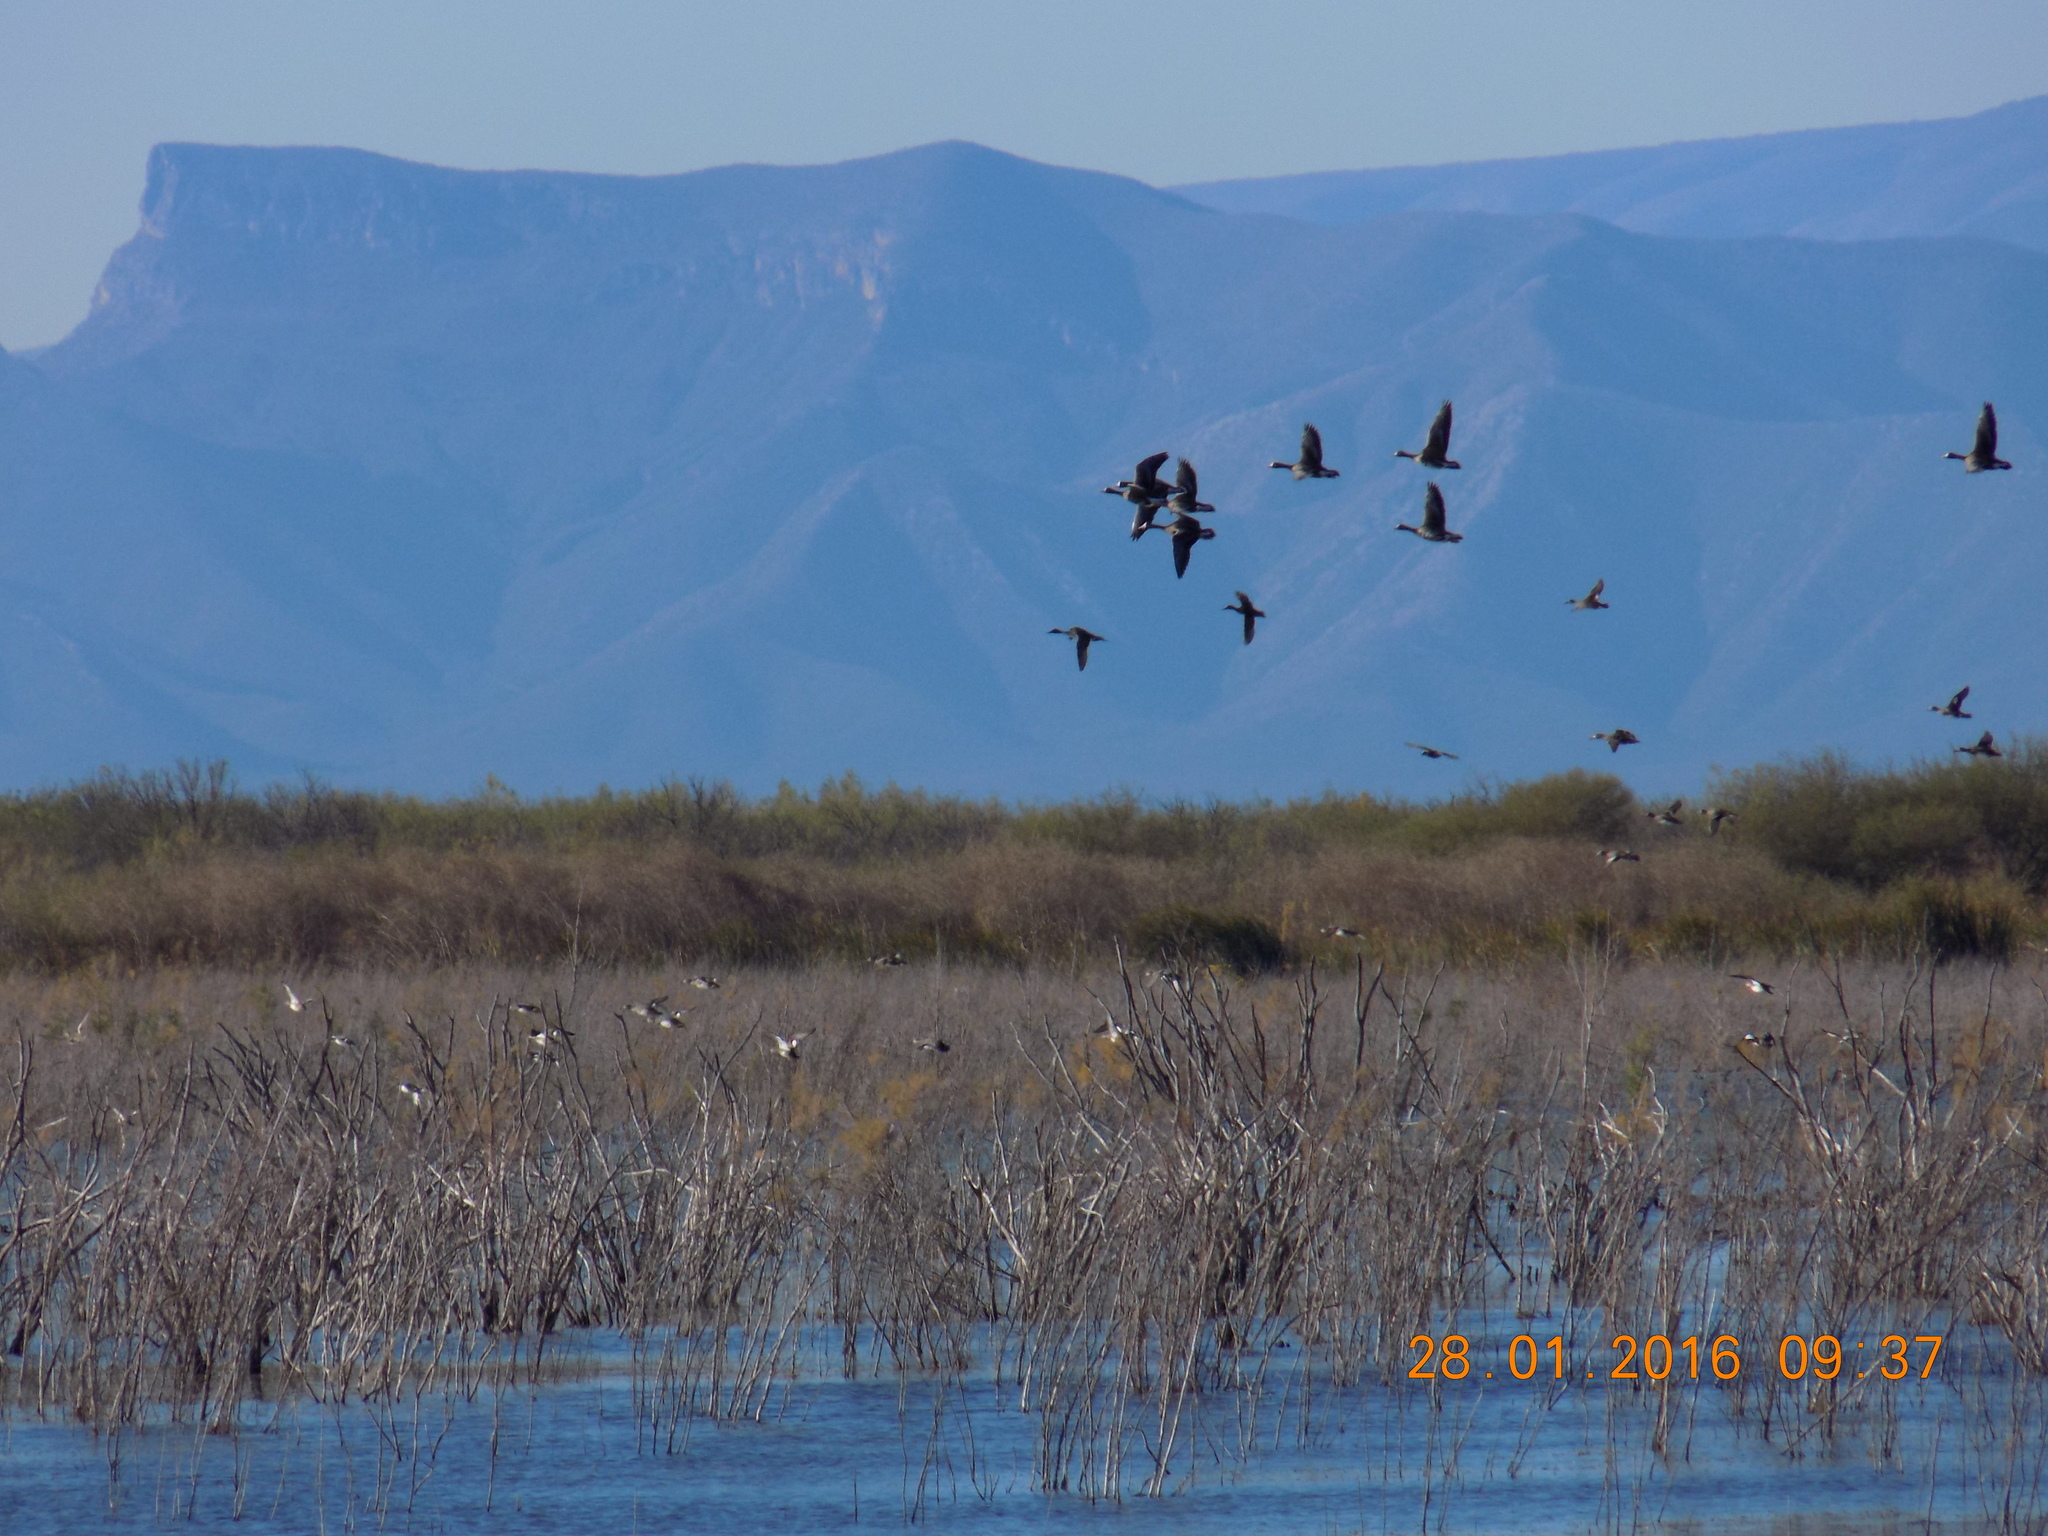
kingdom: Animalia
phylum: Chordata
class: Aves
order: Anseriformes
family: Anatidae
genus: Anser
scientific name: Anser albifrons
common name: Greater white-fronted goose
